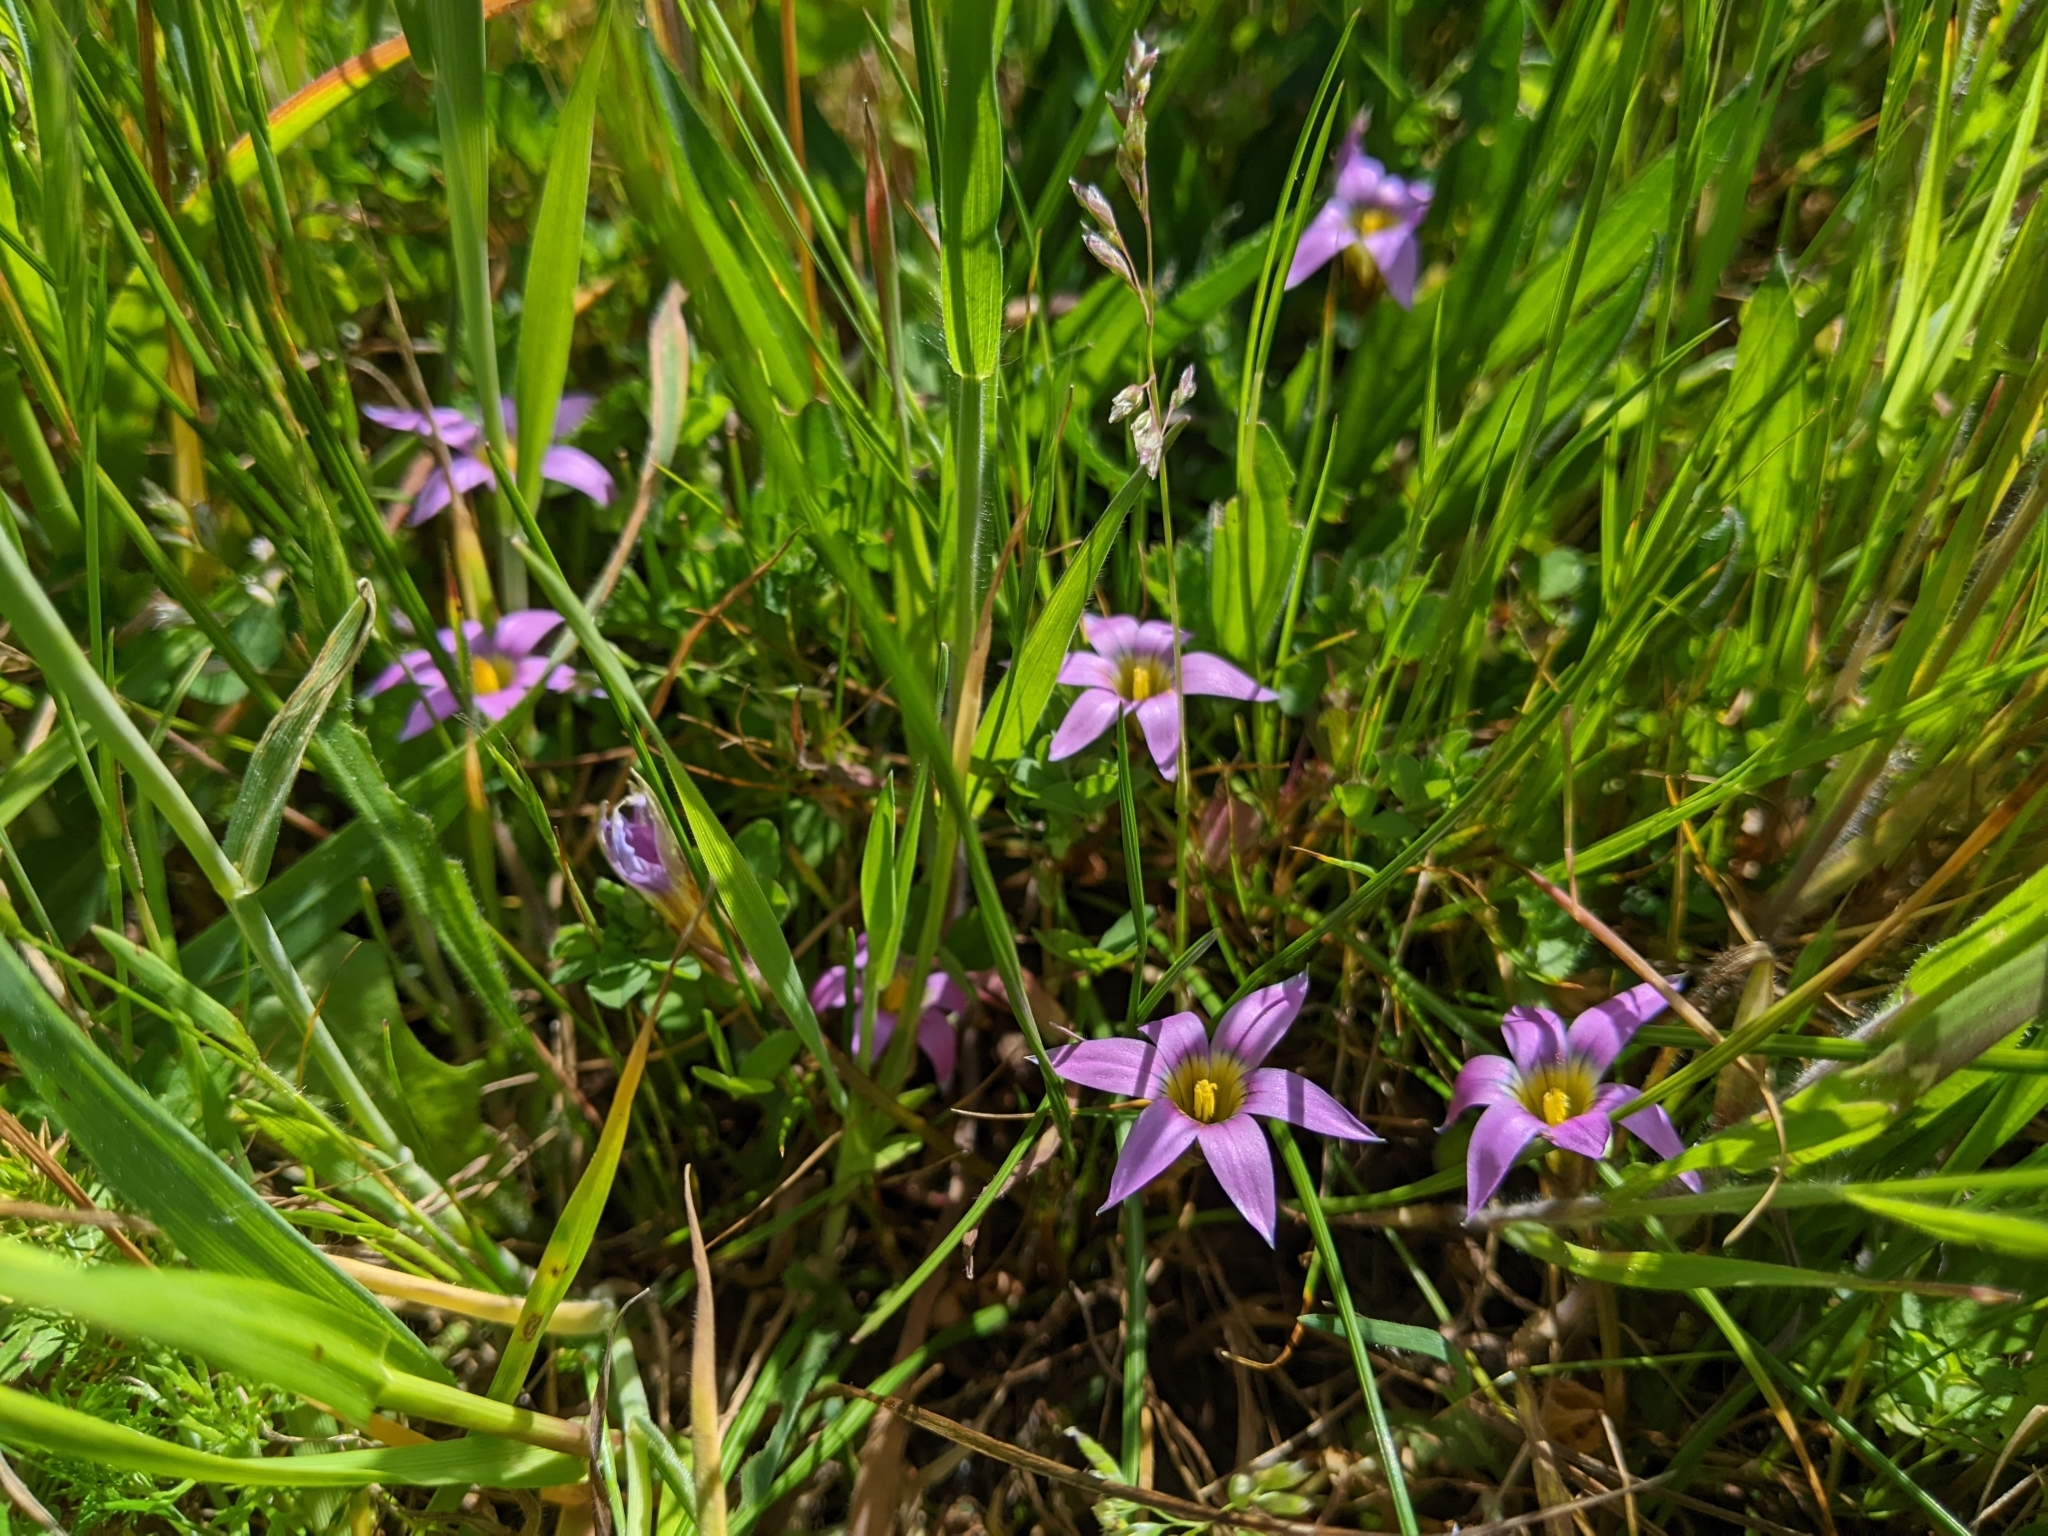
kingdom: Plantae
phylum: Tracheophyta
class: Liliopsida
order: Asparagales
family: Iridaceae
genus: Romulea
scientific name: Romulea rosea
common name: Oniongrass
